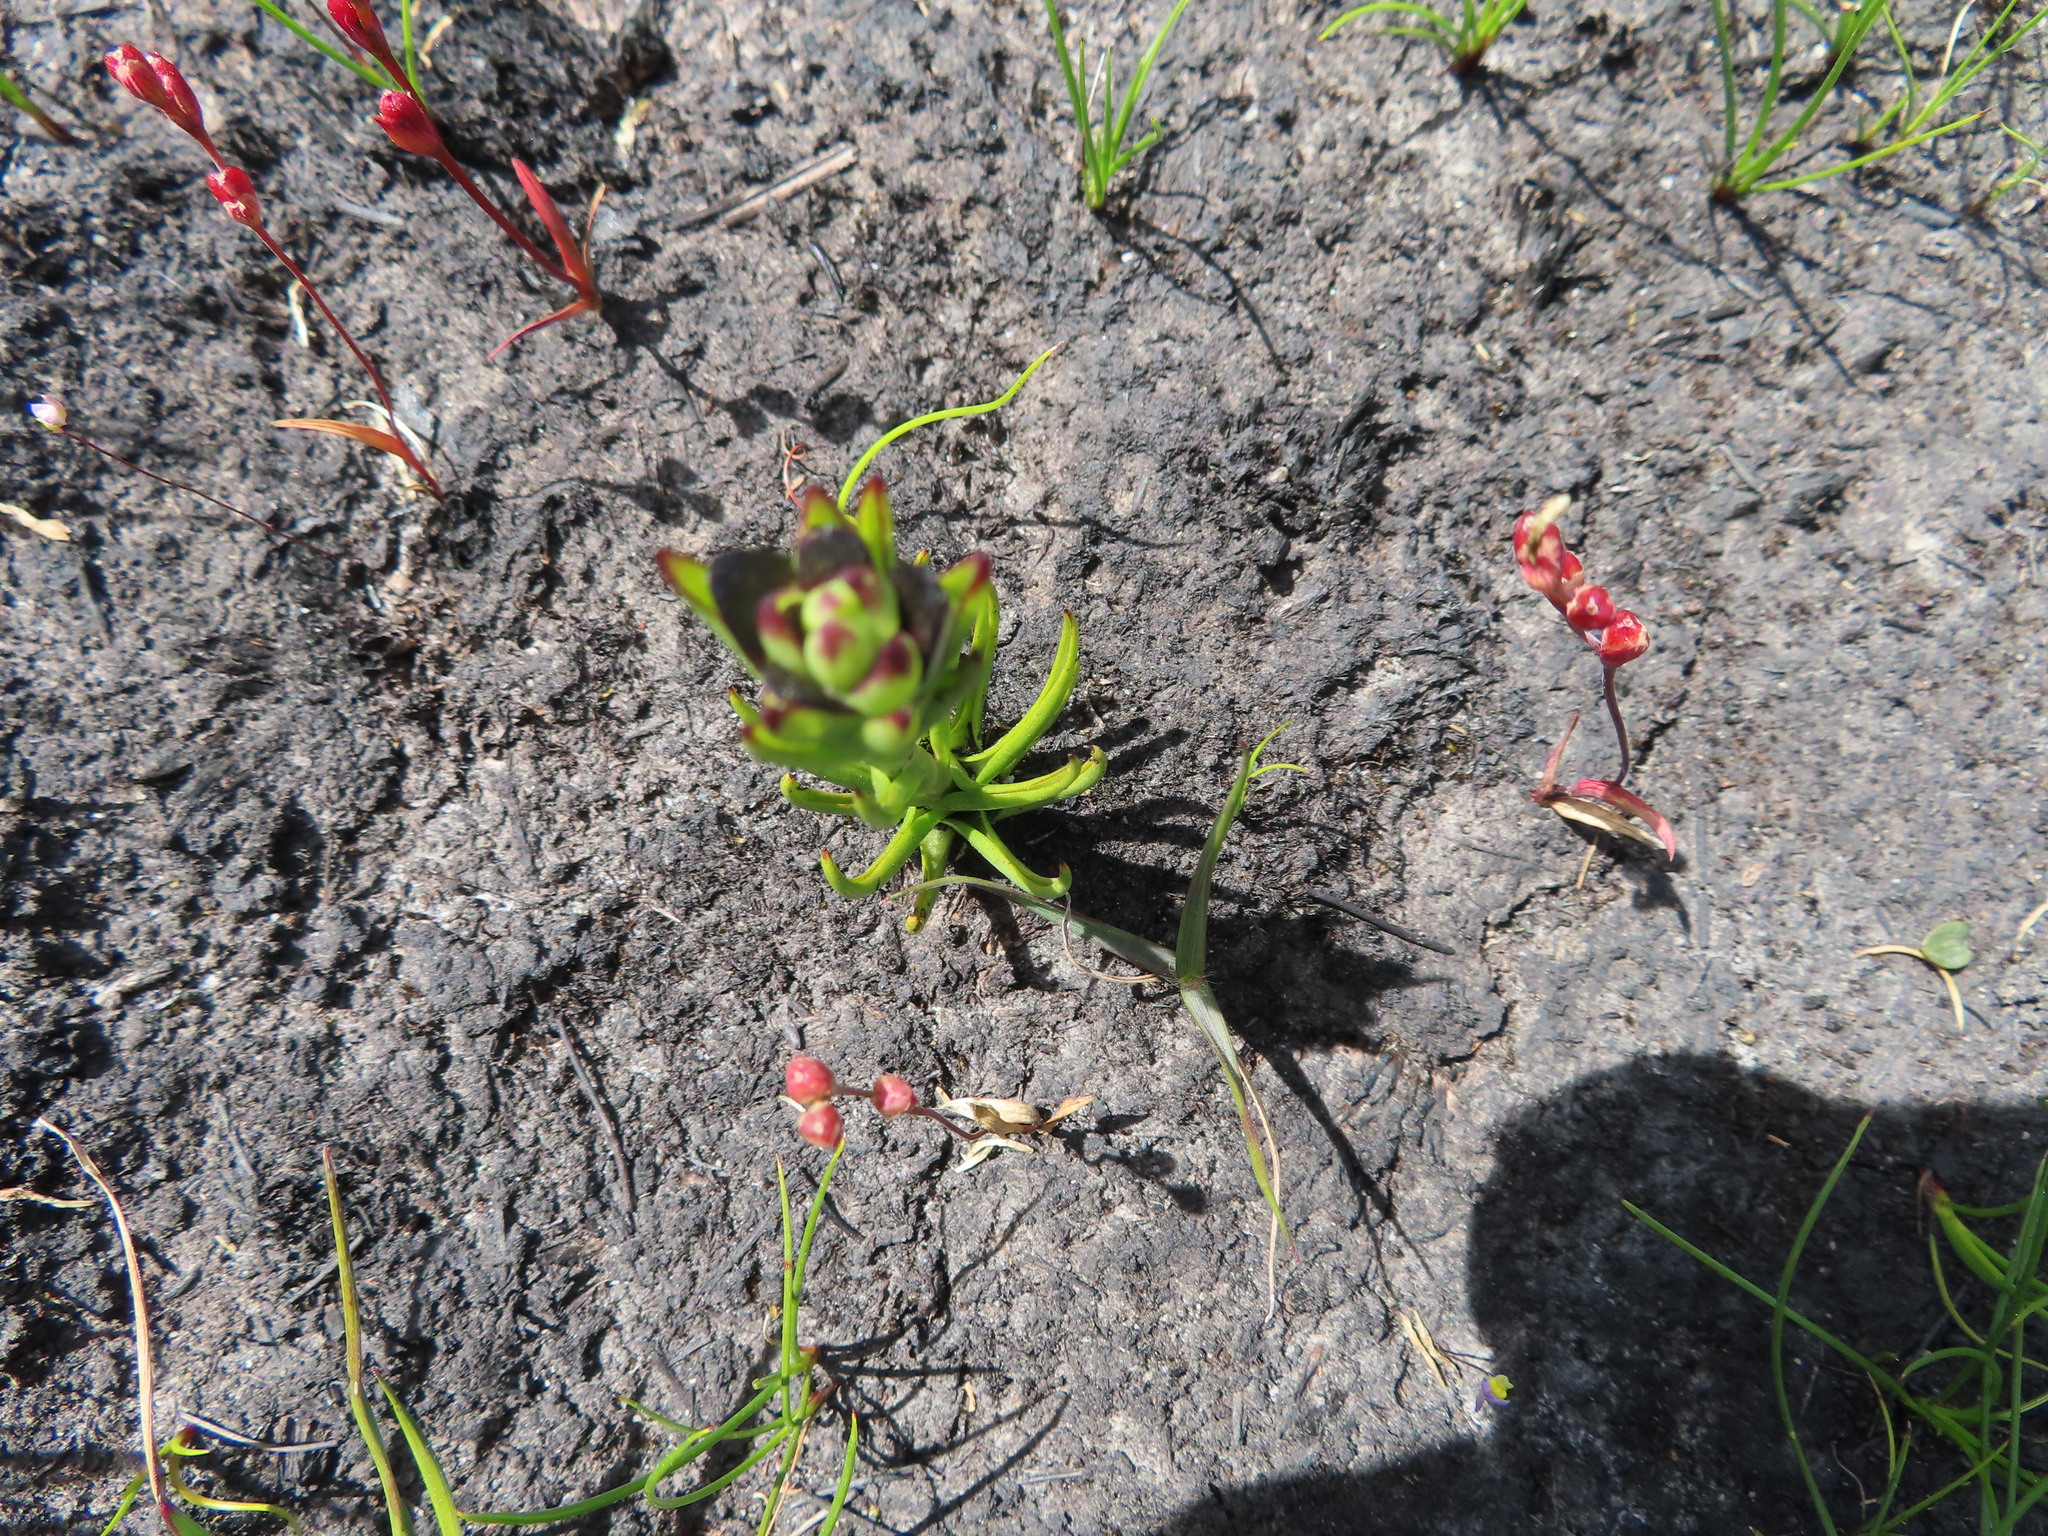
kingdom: Plantae
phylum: Tracheophyta
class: Liliopsida
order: Asparagales
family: Orchidaceae
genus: Disa
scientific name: Disa atricapilla
